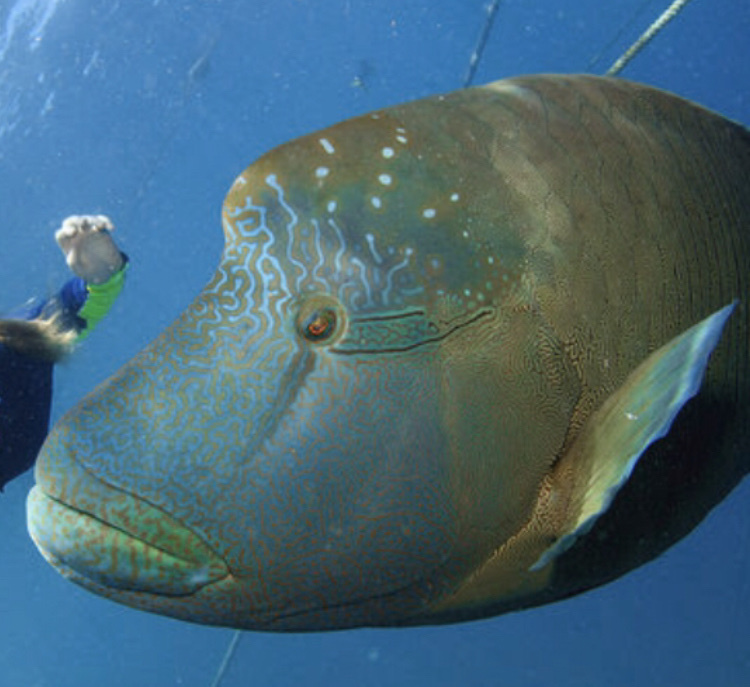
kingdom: Animalia
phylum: Chordata
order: Perciformes
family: Labridae
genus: Cheilinus
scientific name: Cheilinus undulatus
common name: Humphead wrasse
